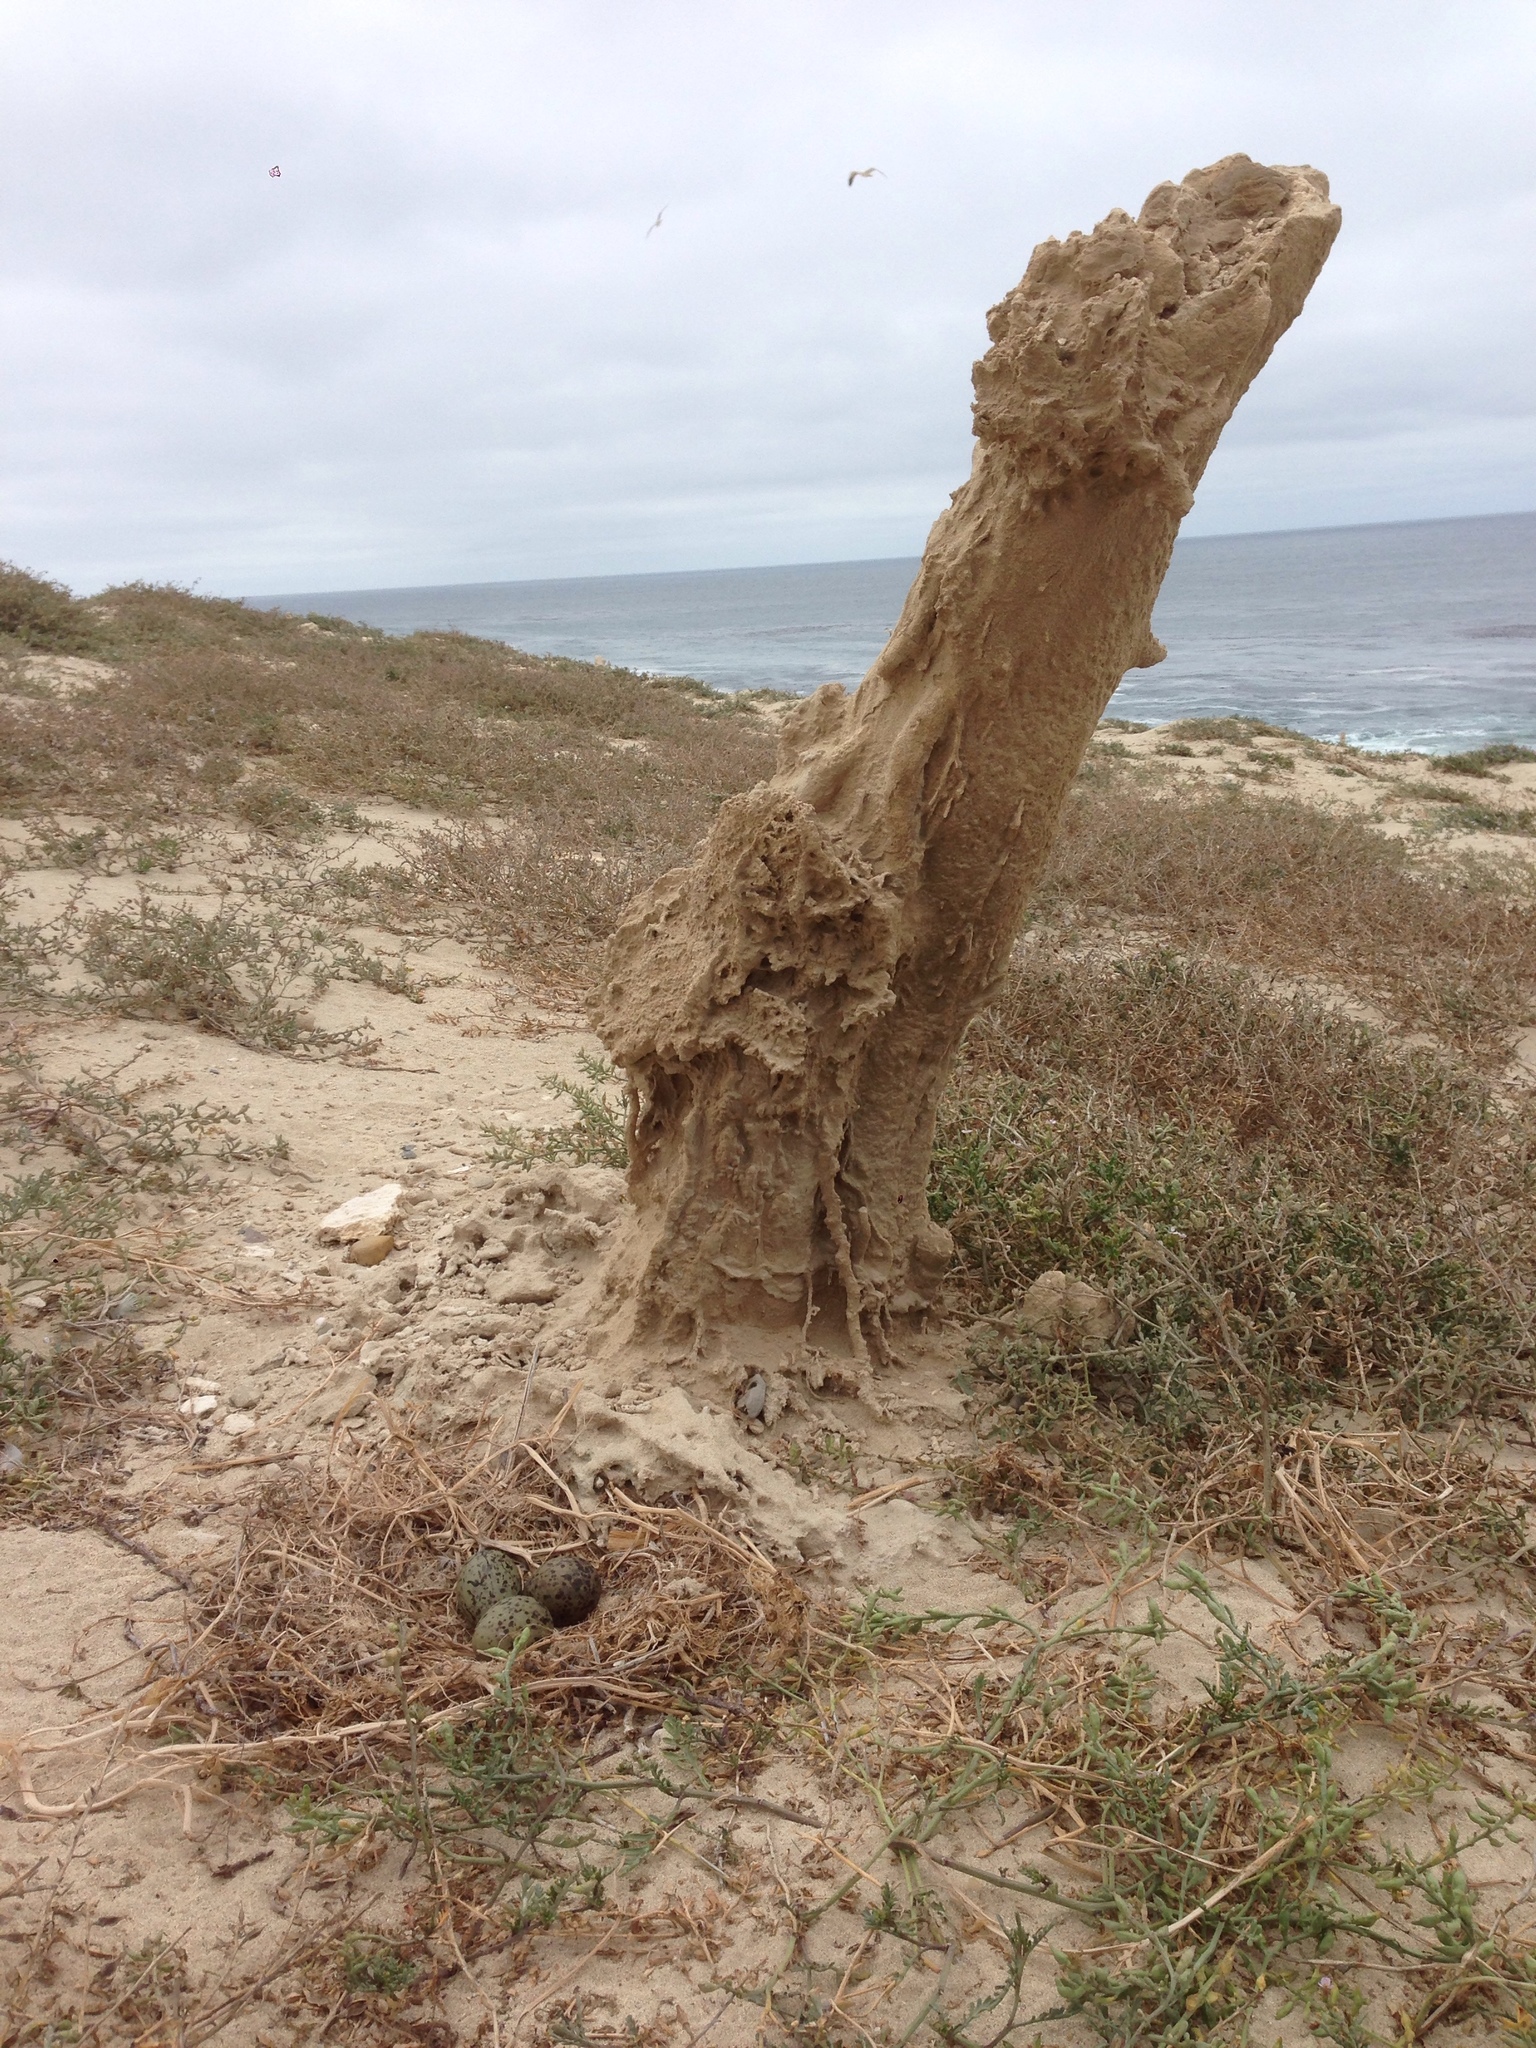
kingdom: Animalia
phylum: Chordata
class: Aves
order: Charadriiformes
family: Laridae
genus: Larus
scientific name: Larus occidentalis
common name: Western gull
